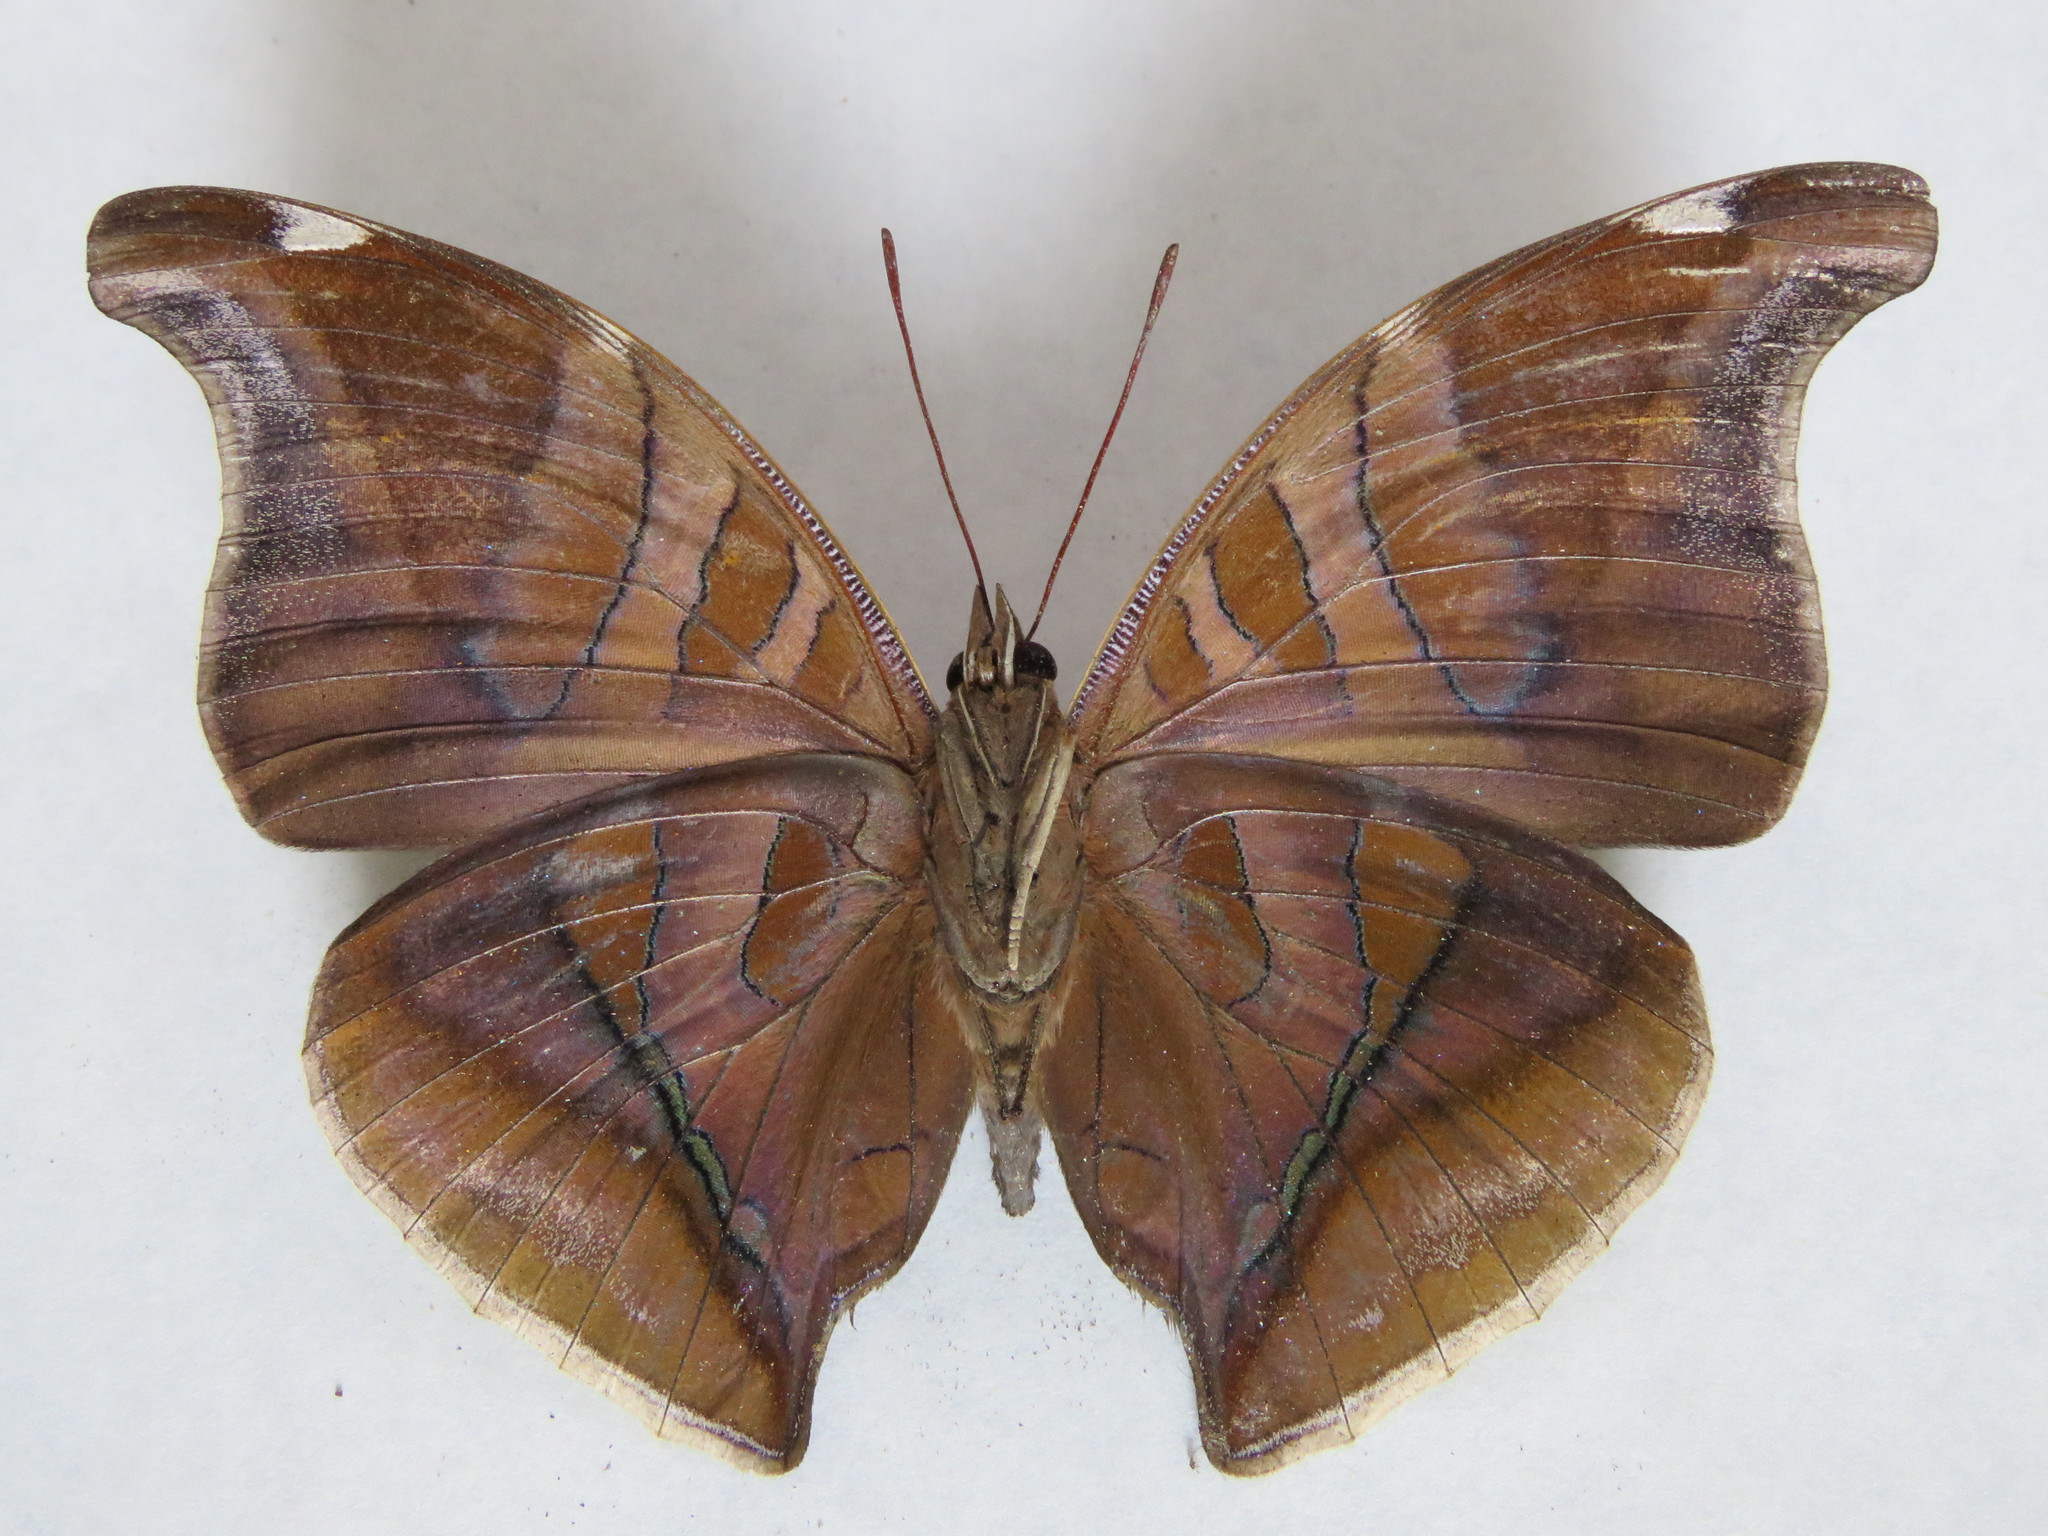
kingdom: Animalia
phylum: Arthropoda
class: Insecta
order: Lepidoptera
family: Nymphalidae
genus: Historis
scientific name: Historis odius
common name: Orion cecropian
